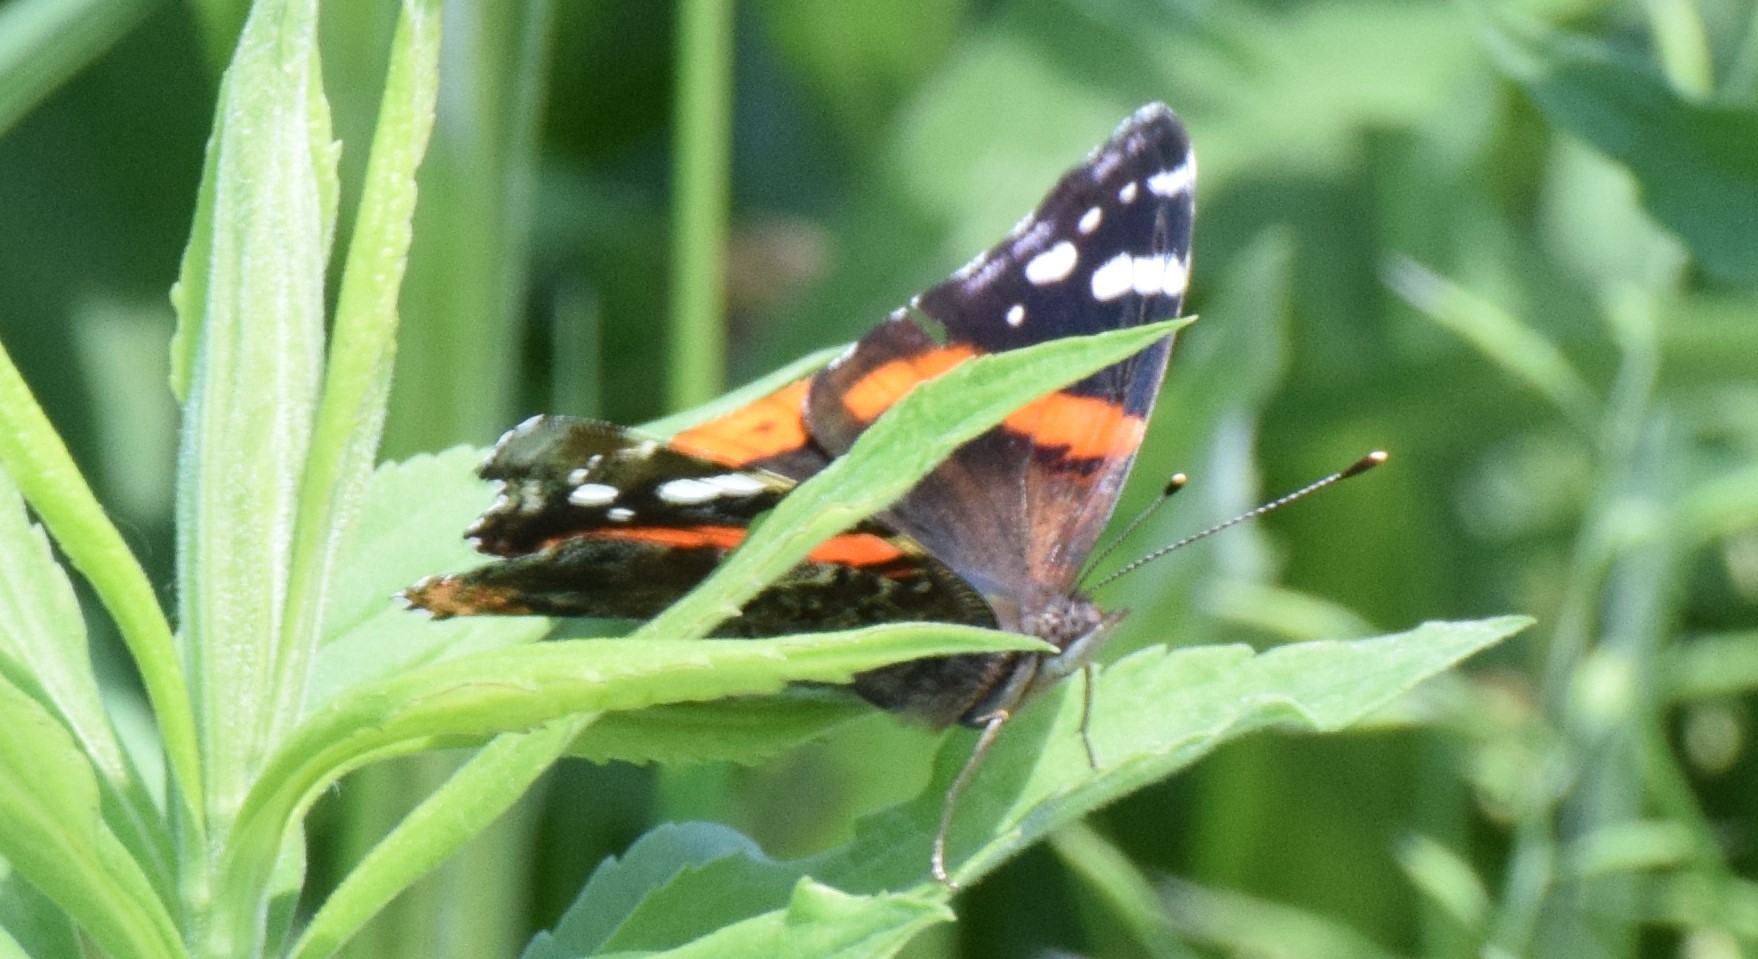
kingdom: Animalia
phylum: Arthropoda
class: Insecta
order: Lepidoptera
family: Nymphalidae
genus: Vanessa
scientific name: Vanessa atalanta
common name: Red admiral
